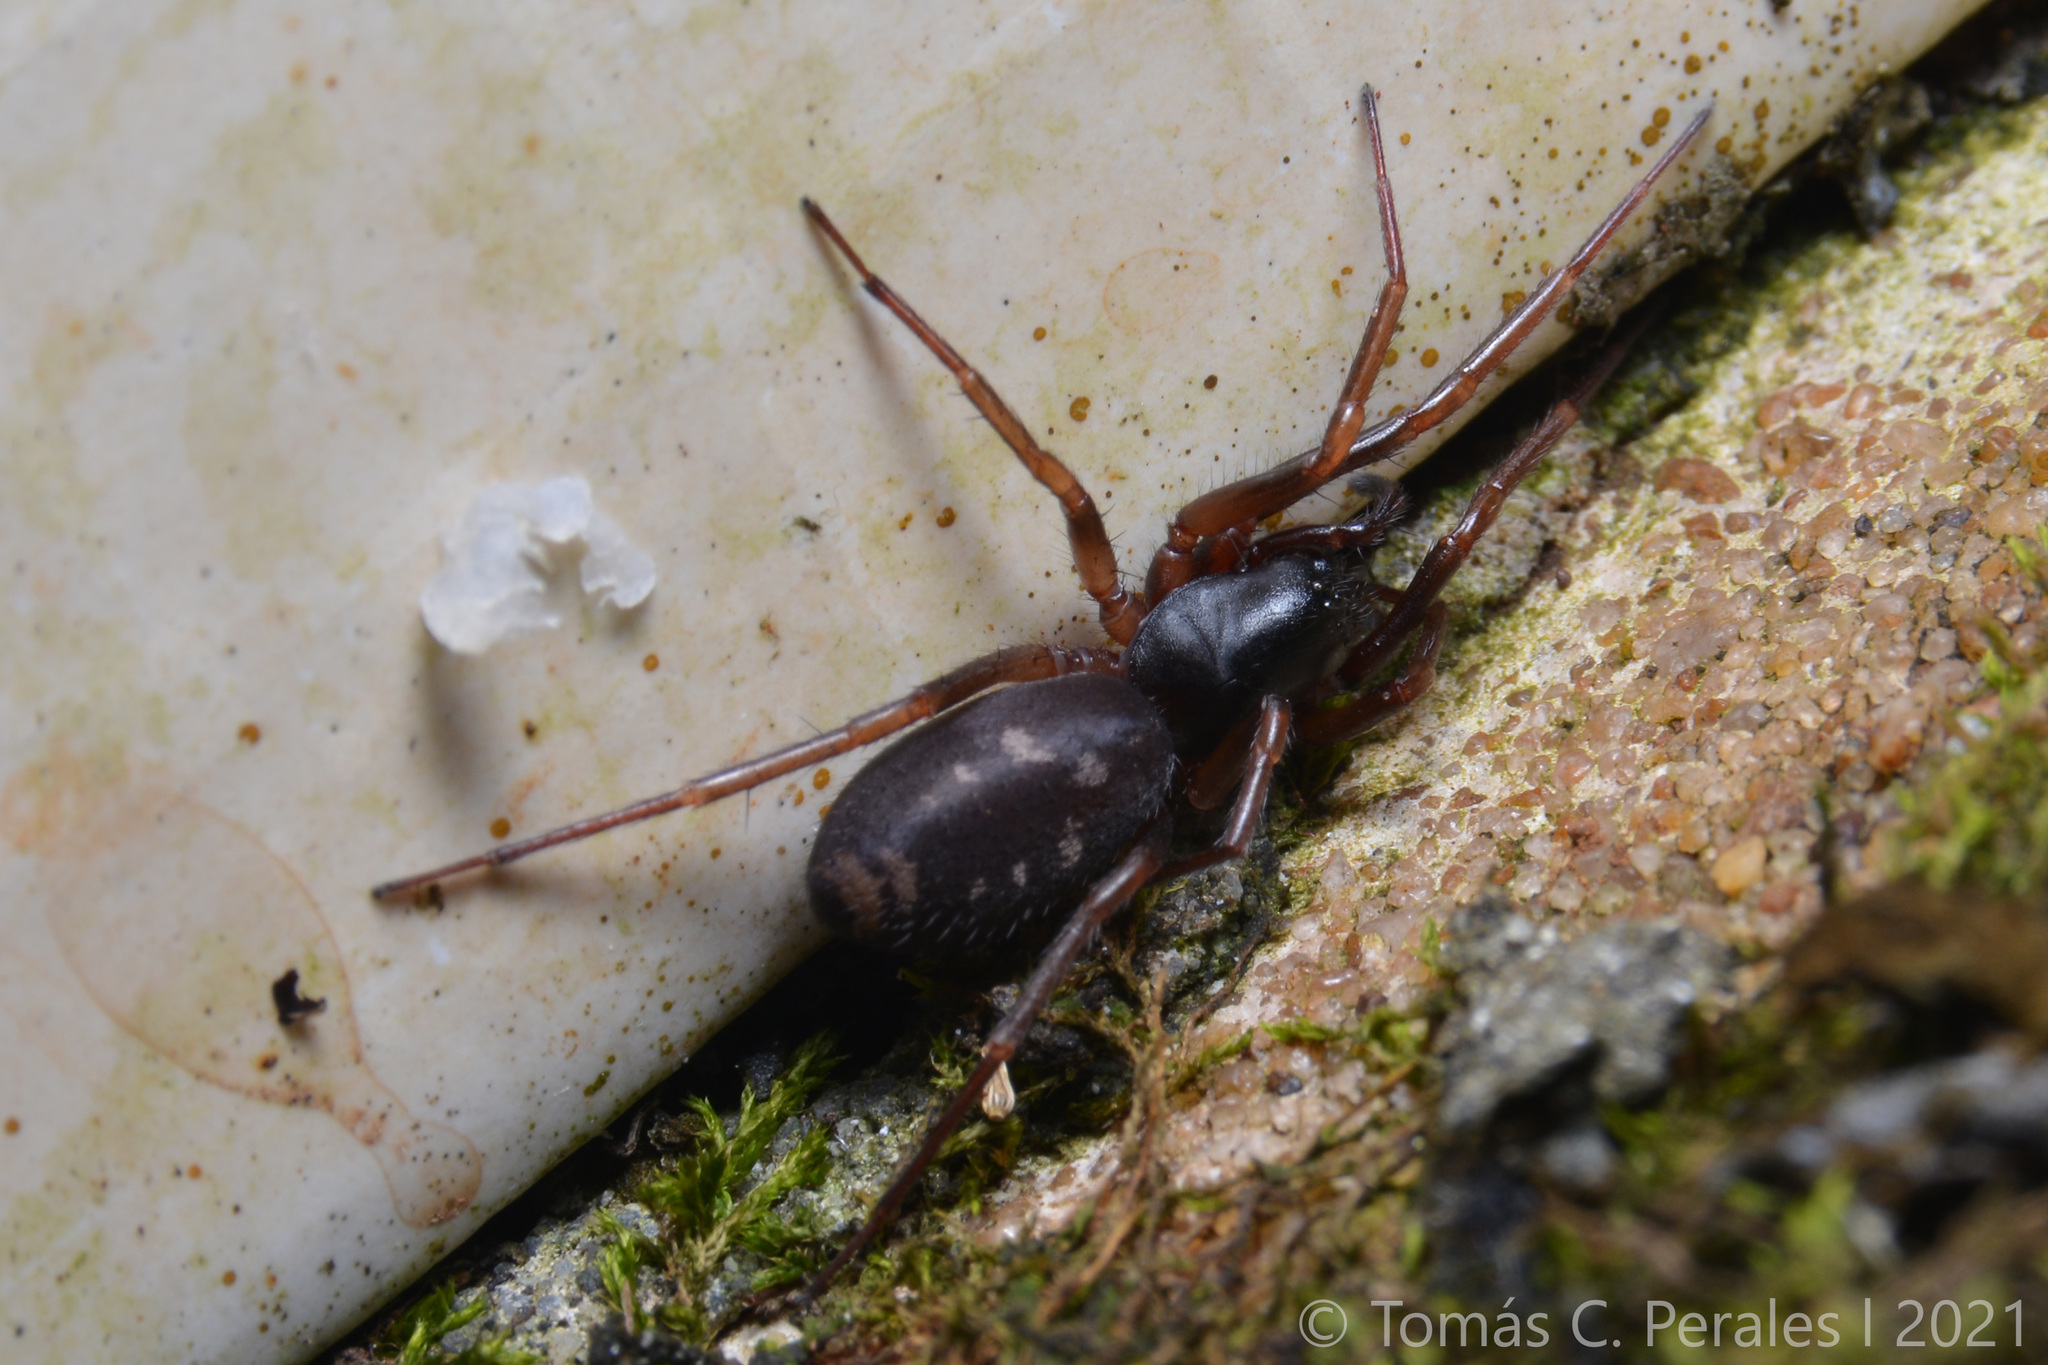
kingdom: Animalia
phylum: Arthropoda
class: Arachnida
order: Araneae
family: Corinnidae
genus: Falconina
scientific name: Falconina gracilis
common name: Antmimic spider
